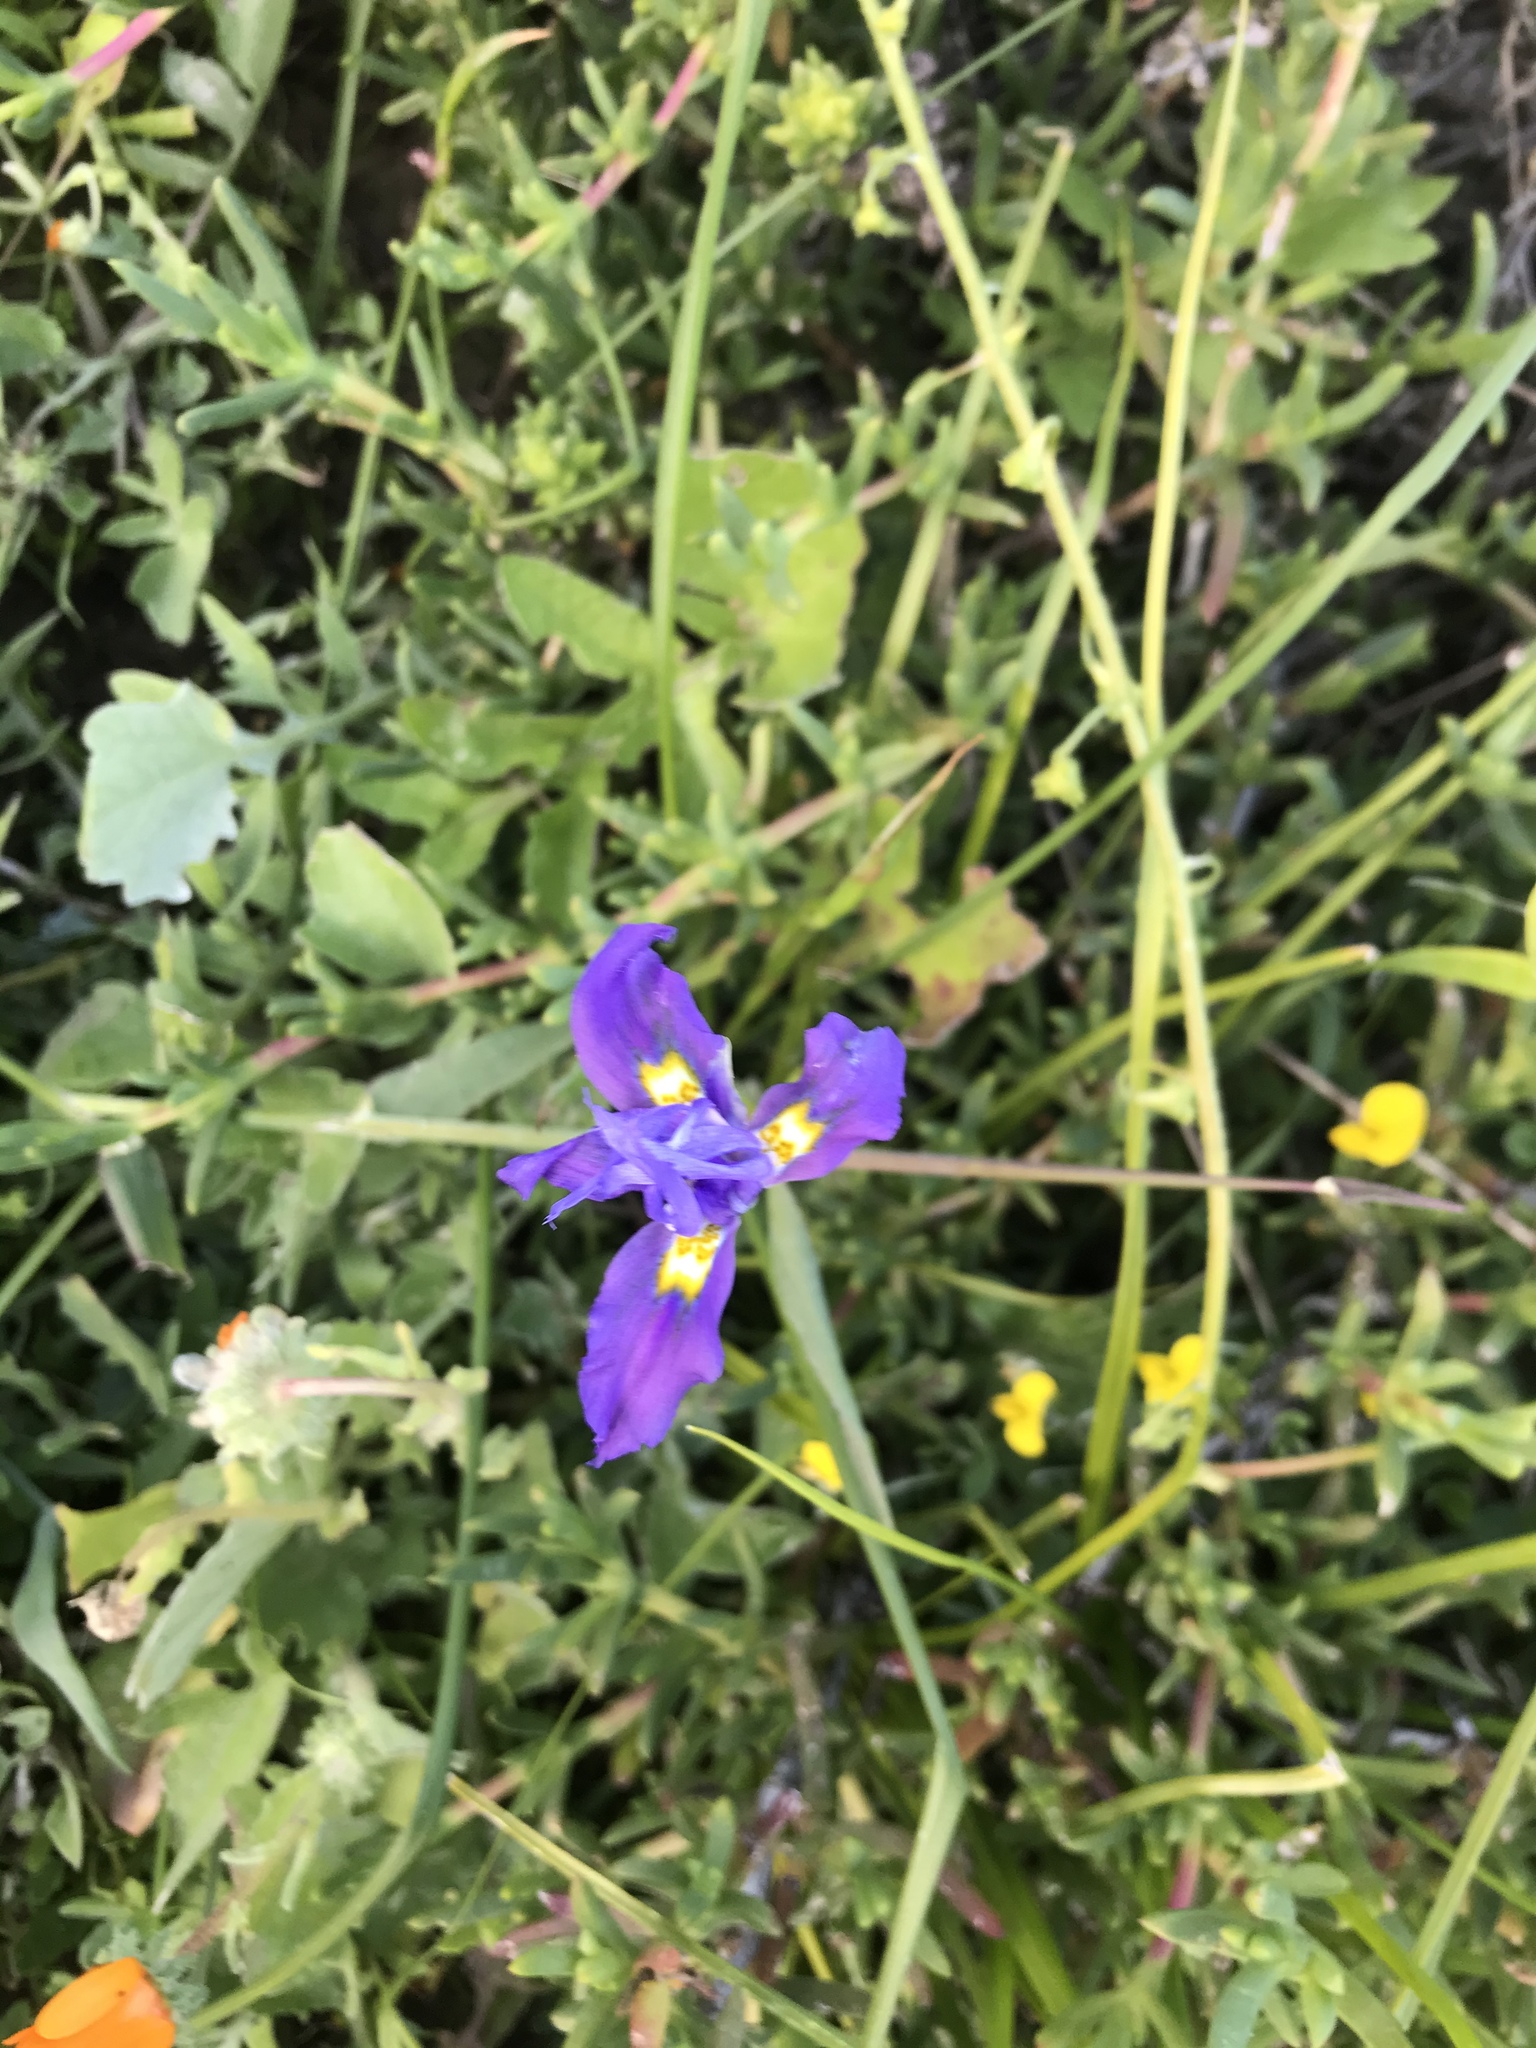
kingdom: Plantae
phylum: Tracheophyta
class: Liliopsida
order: Asparagales
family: Iridaceae
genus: Moraea
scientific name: Moraea fugax
